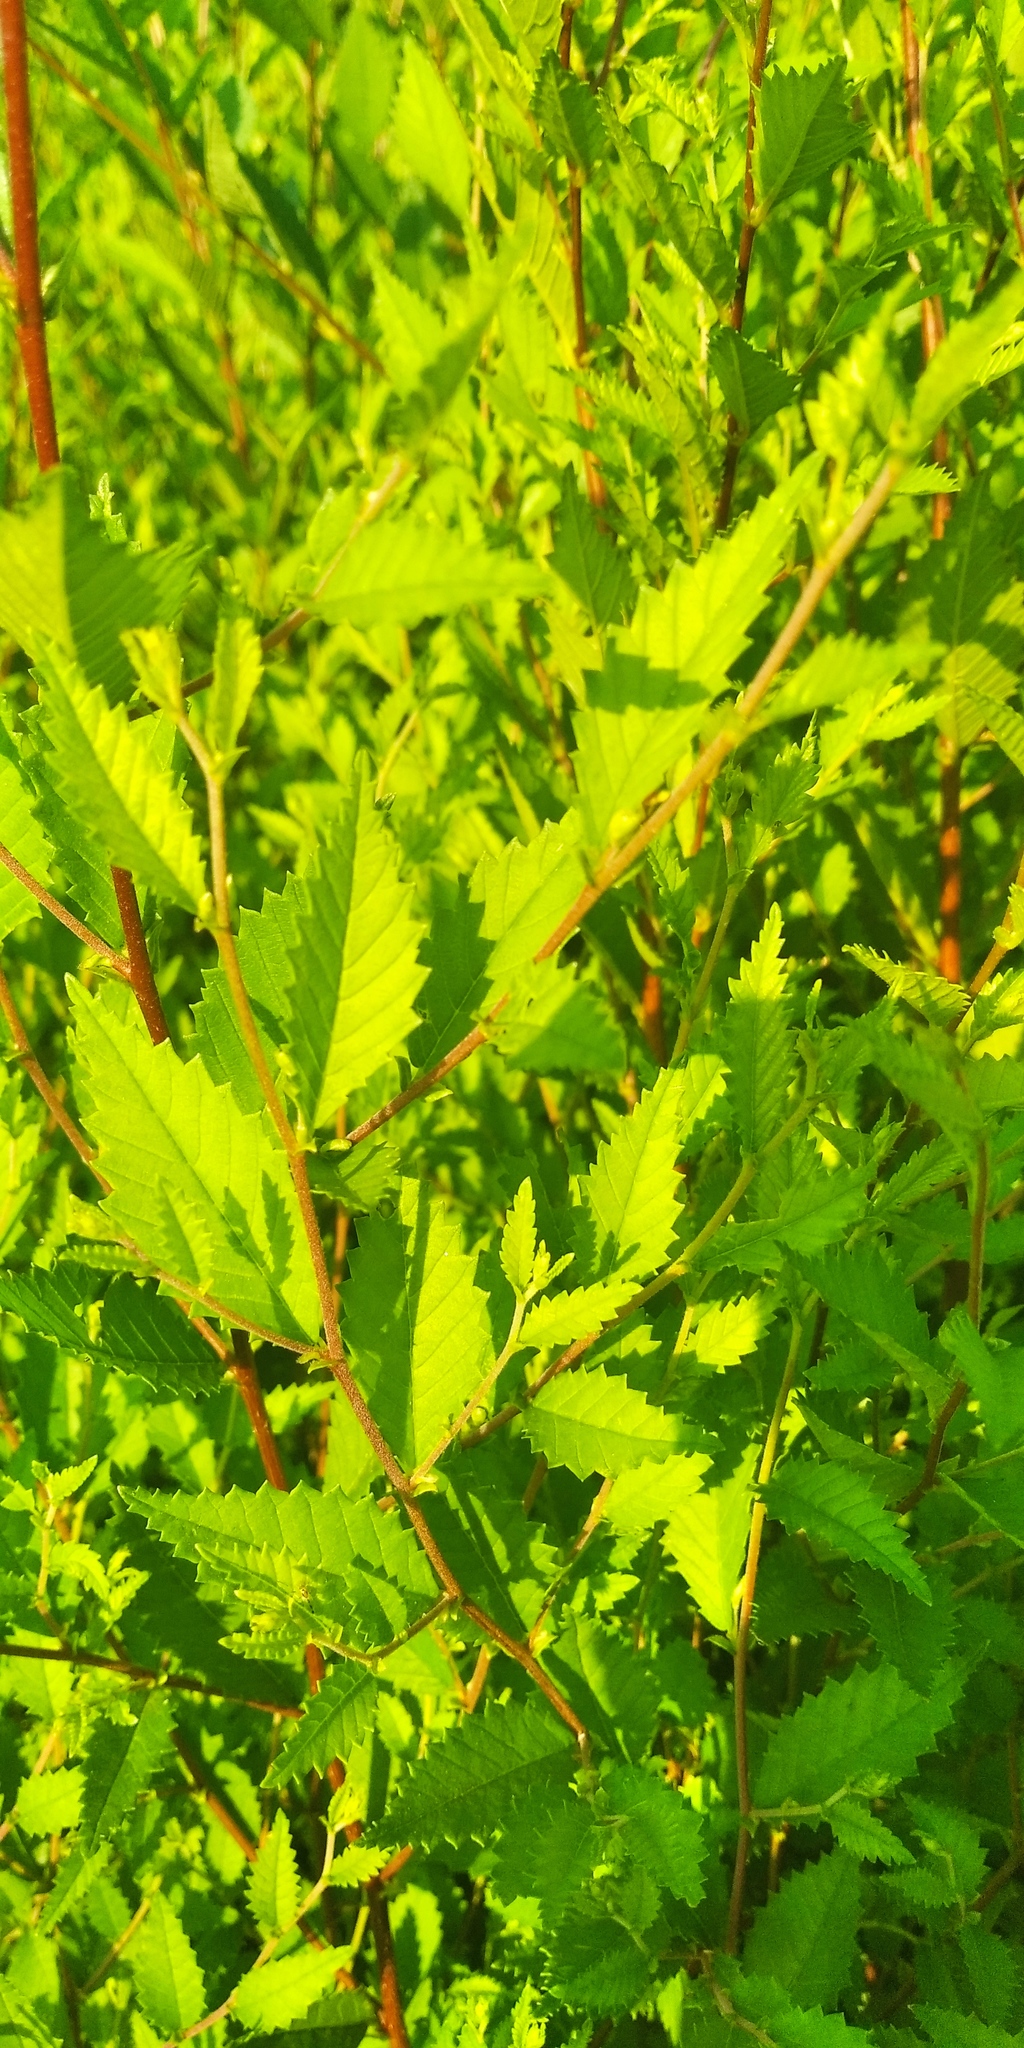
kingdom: Plantae
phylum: Tracheophyta
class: Magnoliopsida
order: Rosales
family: Ulmaceae
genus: Ulmus
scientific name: Ulmus pumila
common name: Siberian elm
